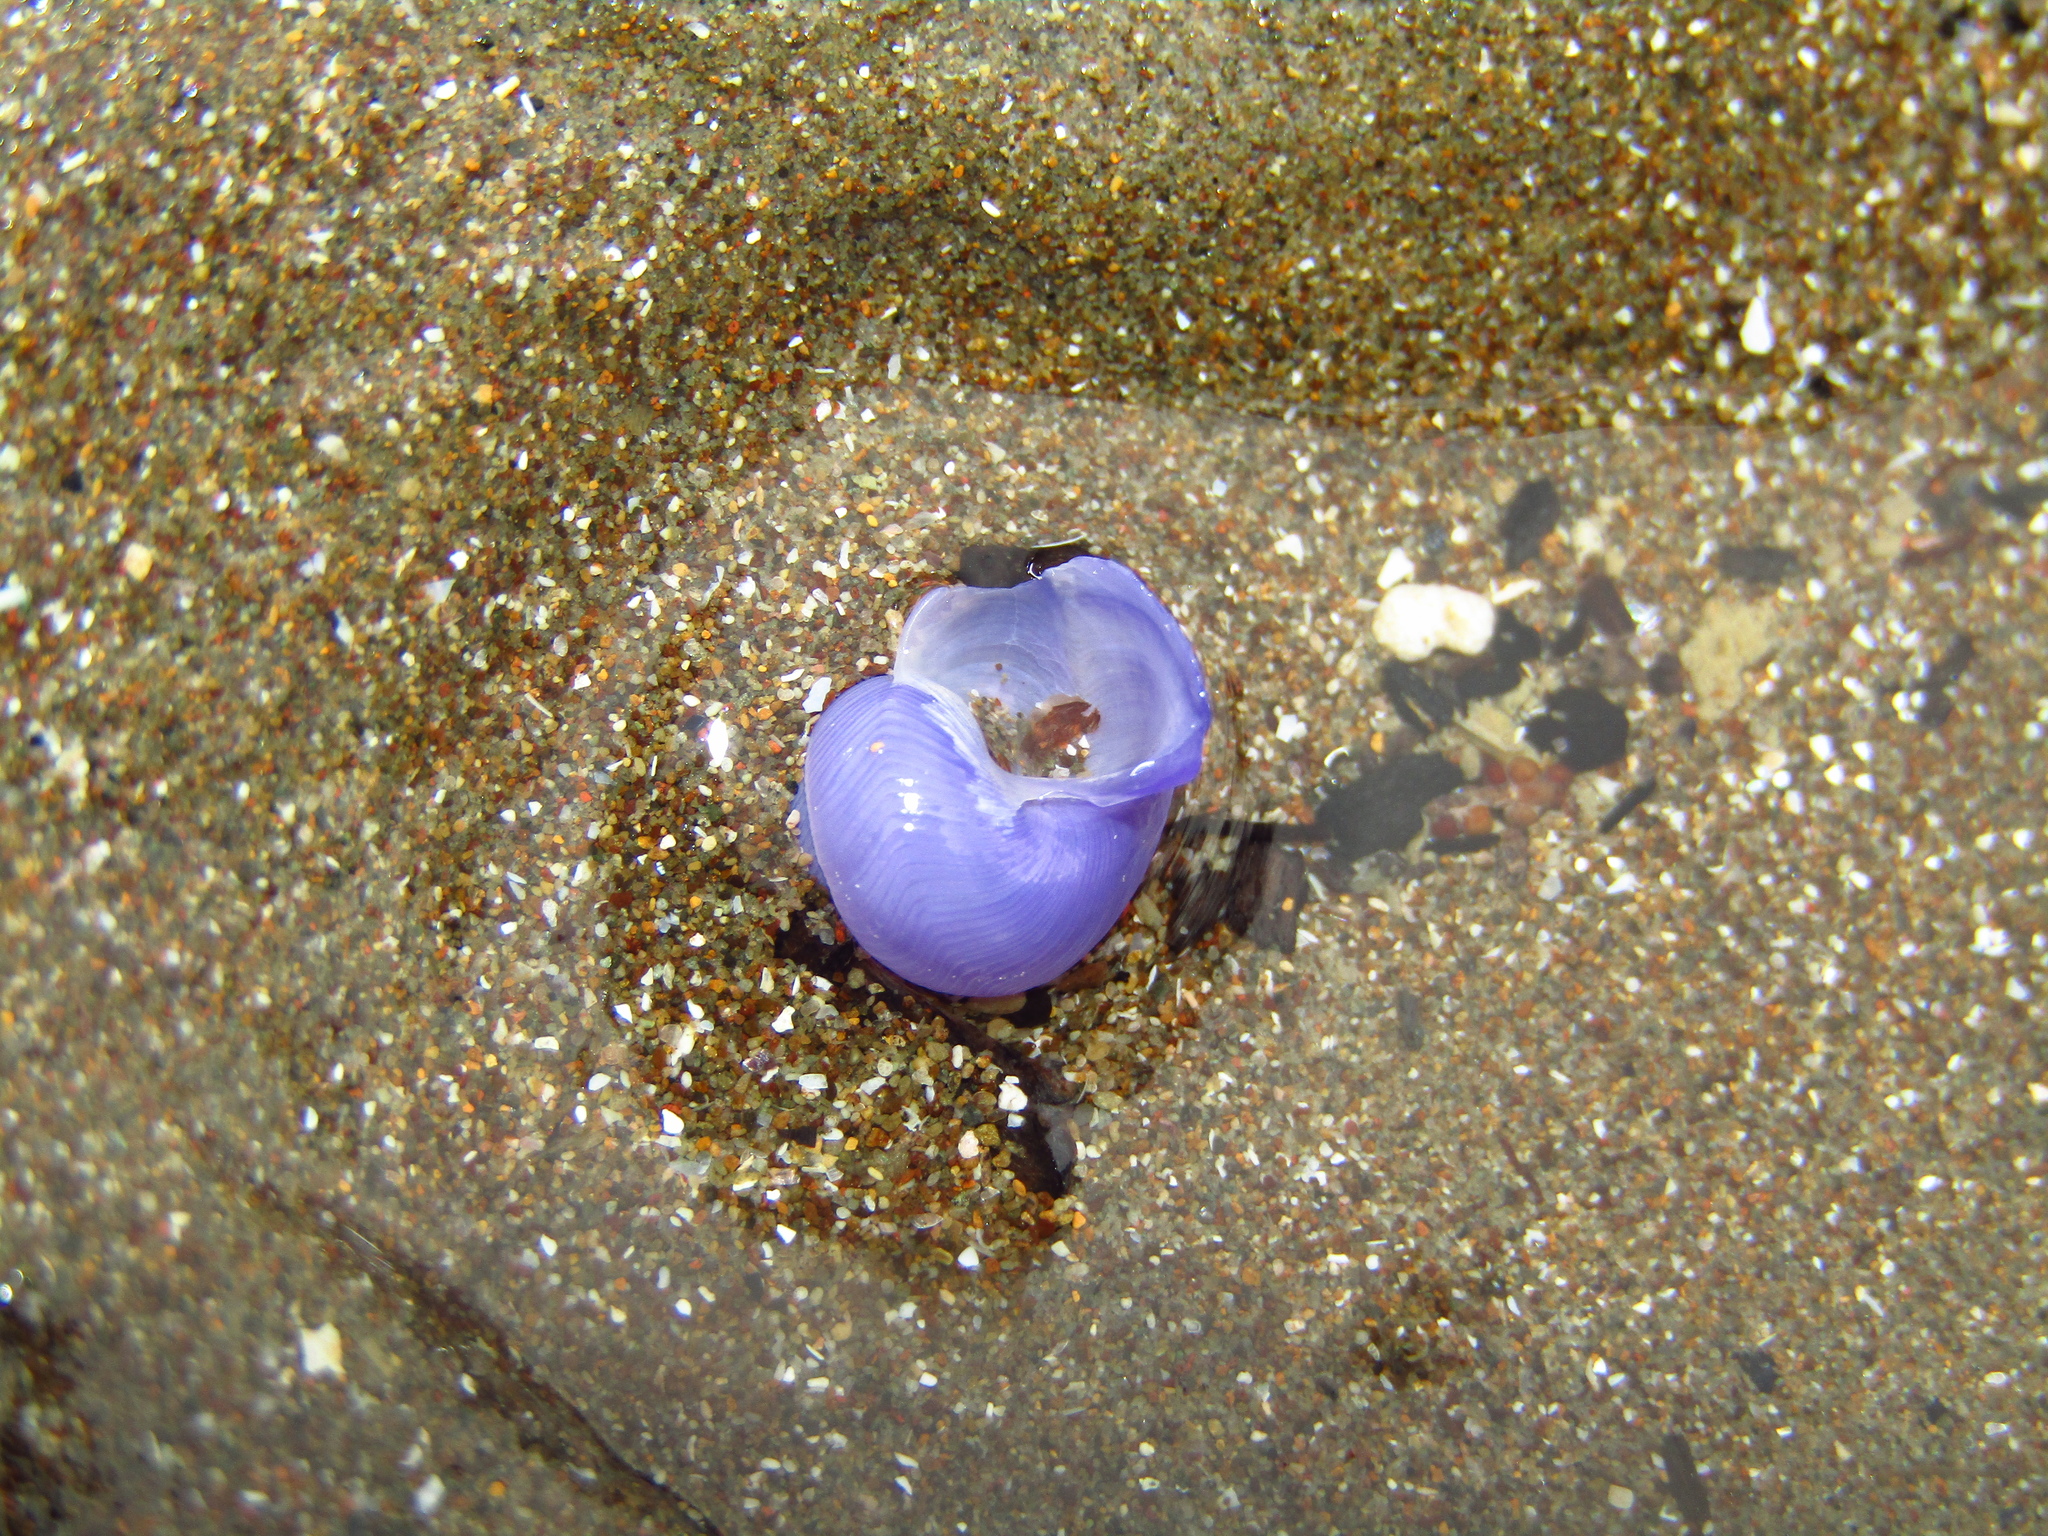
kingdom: Animalia
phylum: Mollusca
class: Gastropoda
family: Epitoniidae
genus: Janthina
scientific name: Janthina exigua
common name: Dwarf janthina
